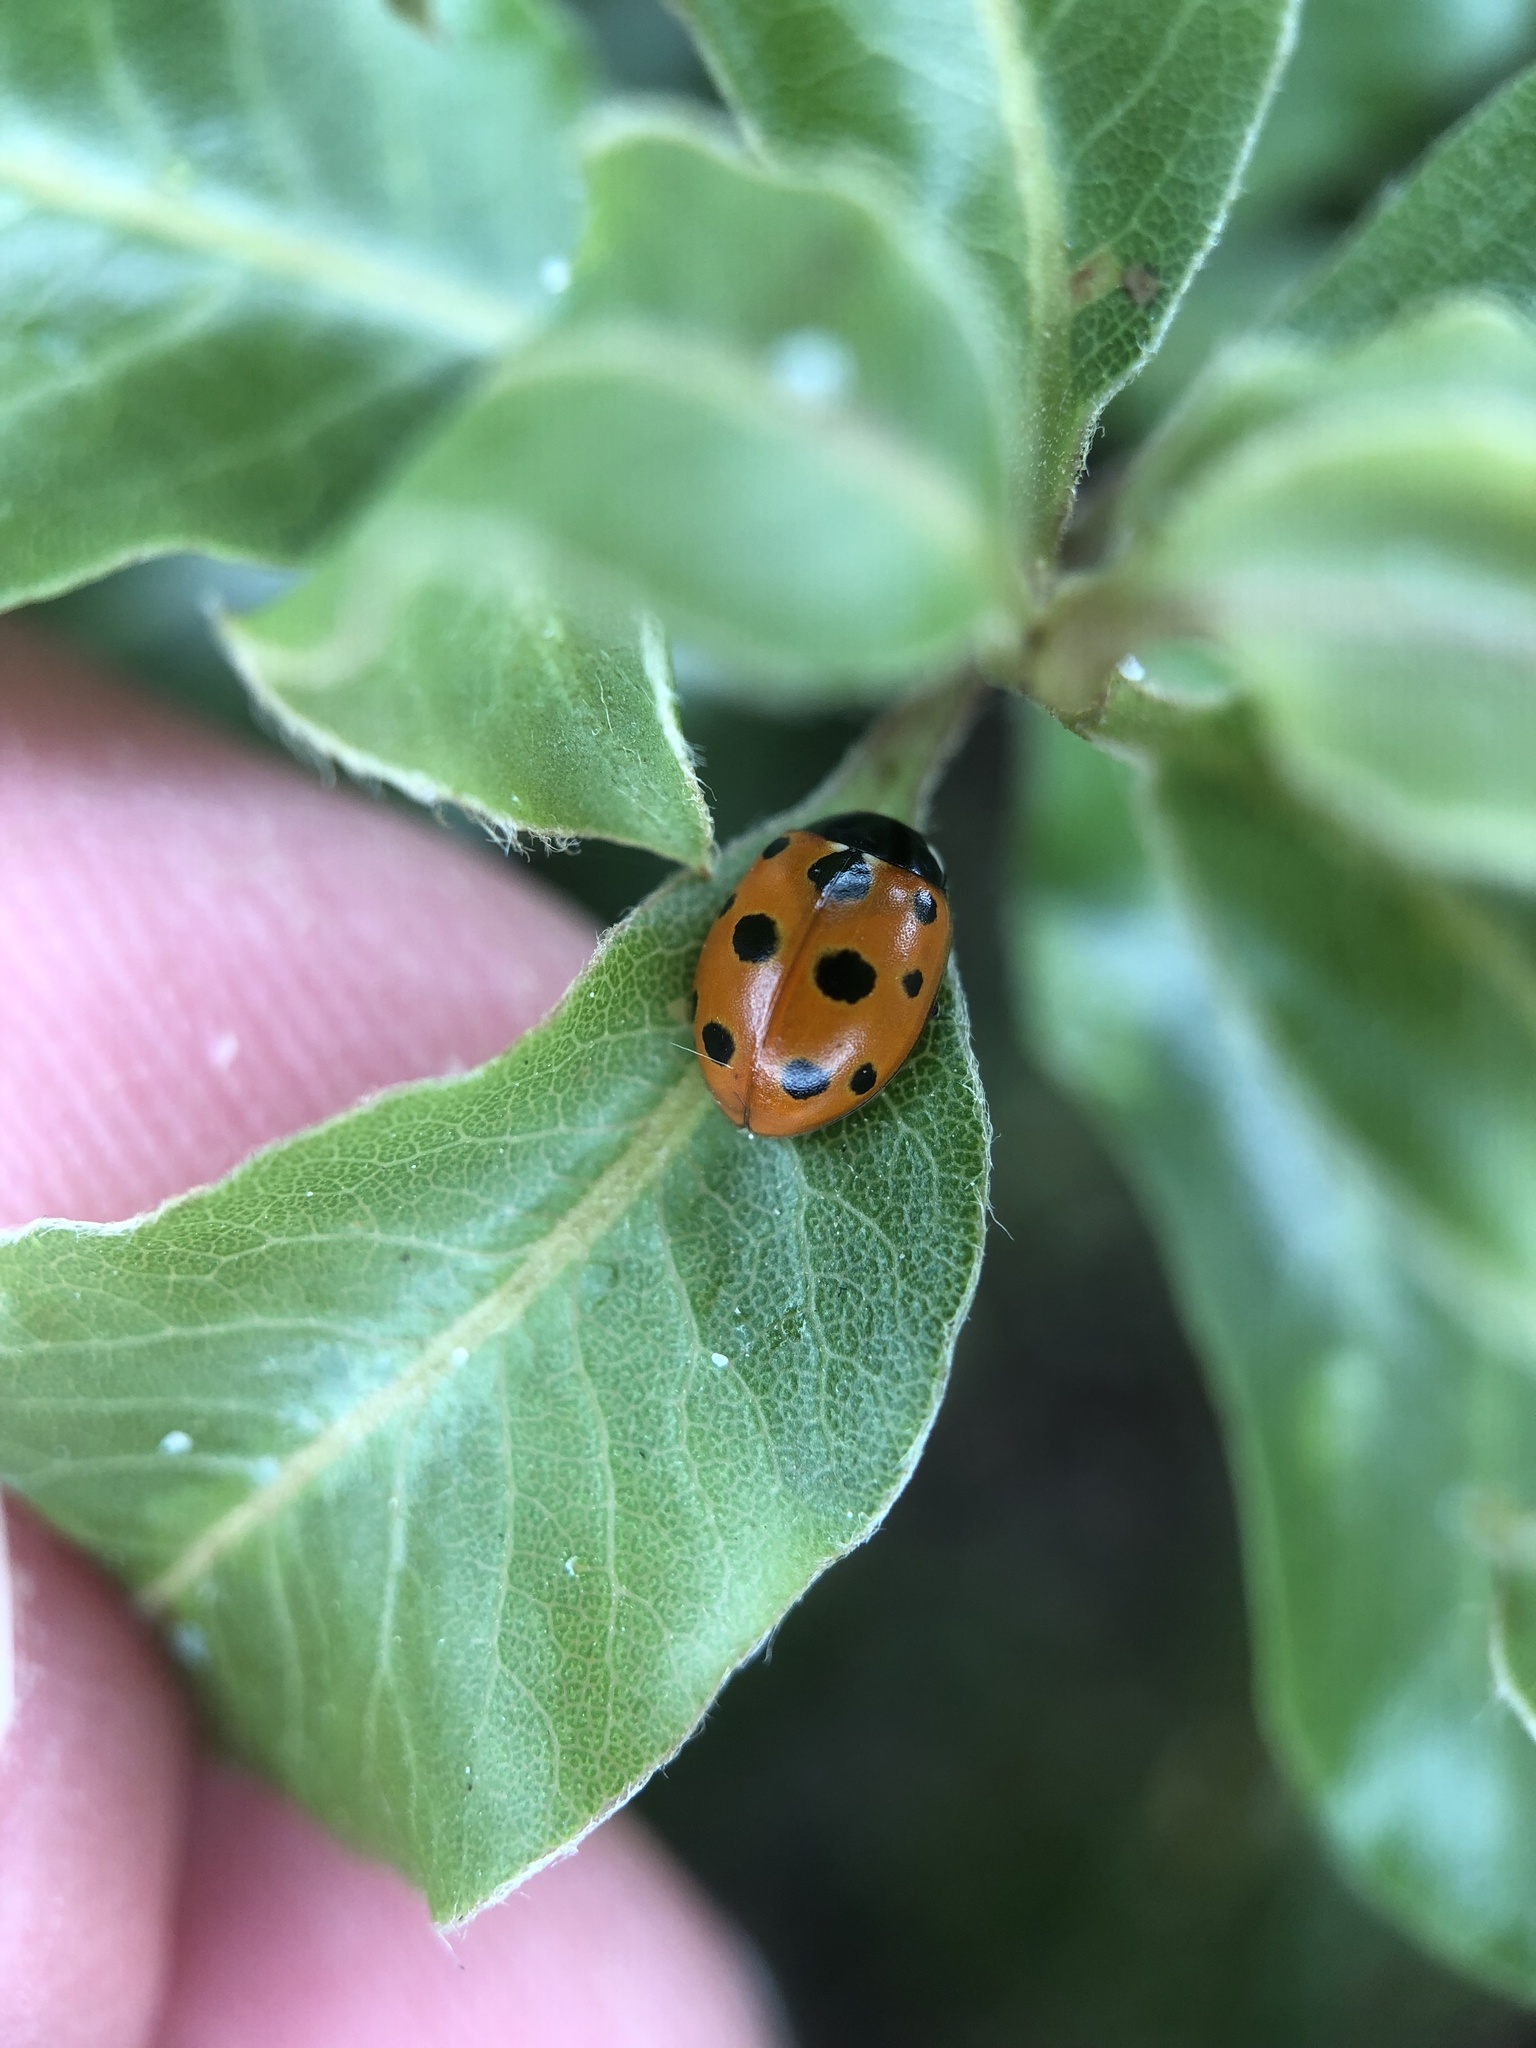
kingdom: Animalia
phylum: Arthropoda
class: Insecta
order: Coleoptera
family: Coccinellidae
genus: Coccinella
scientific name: Coccinella undecimpunctata
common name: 11-spot ladybird
